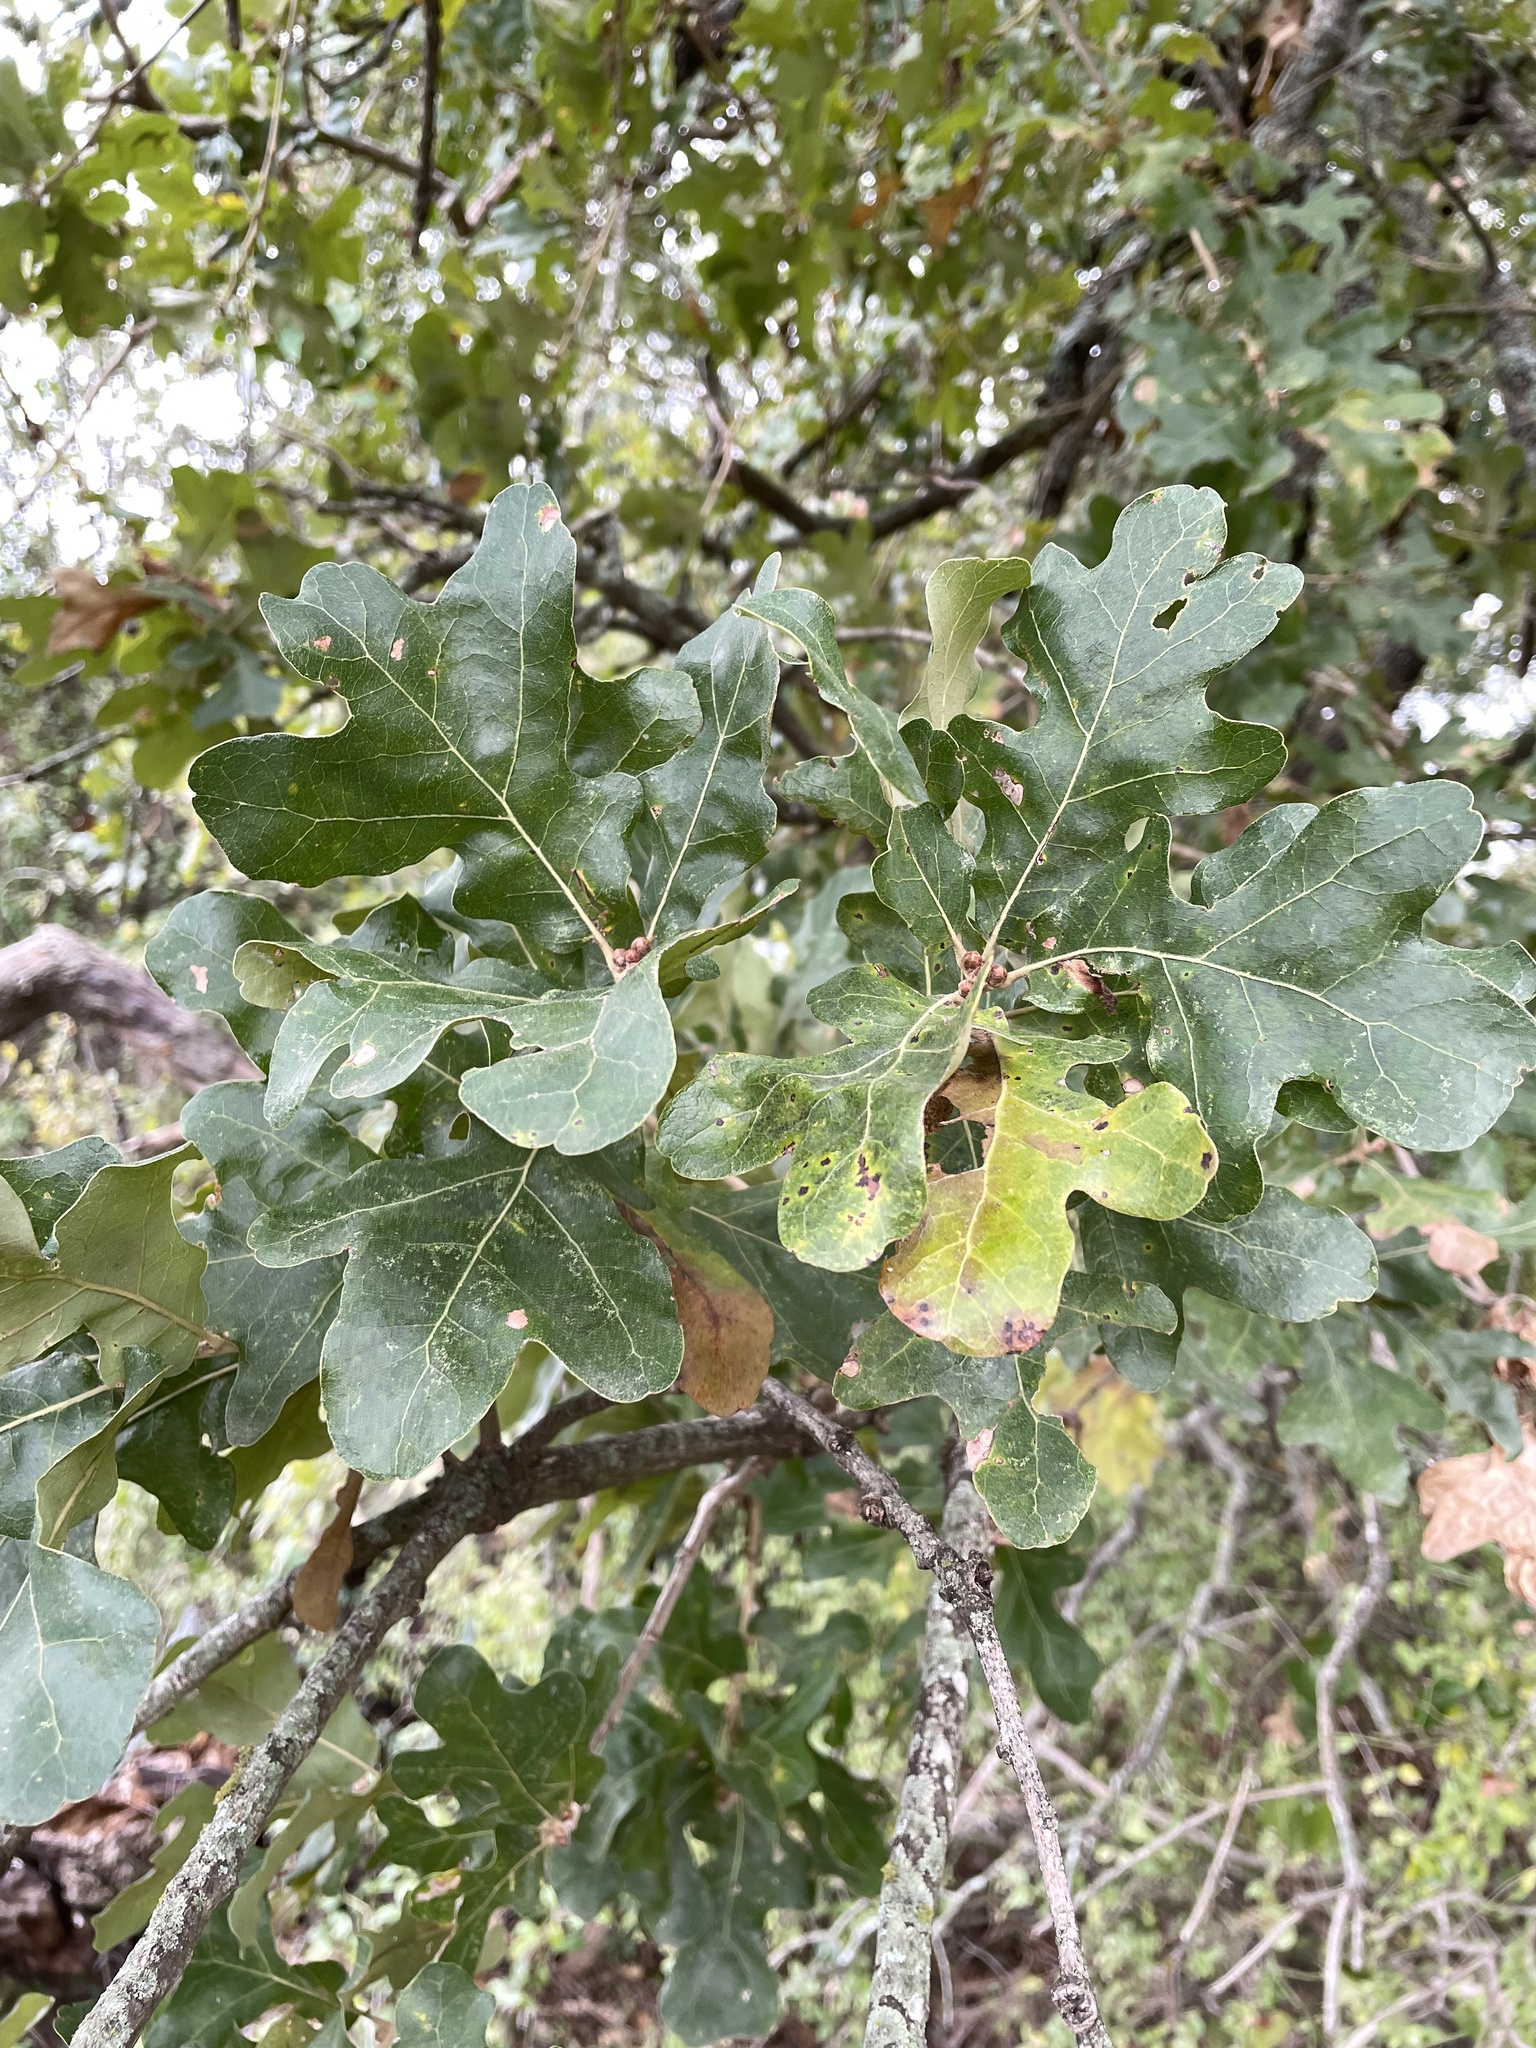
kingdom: Plantae
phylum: Tracheophyta
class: Magnoliopsida
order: Fagales
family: Fagaceae
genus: Quercus
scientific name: Quercus stellata
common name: Post oak
